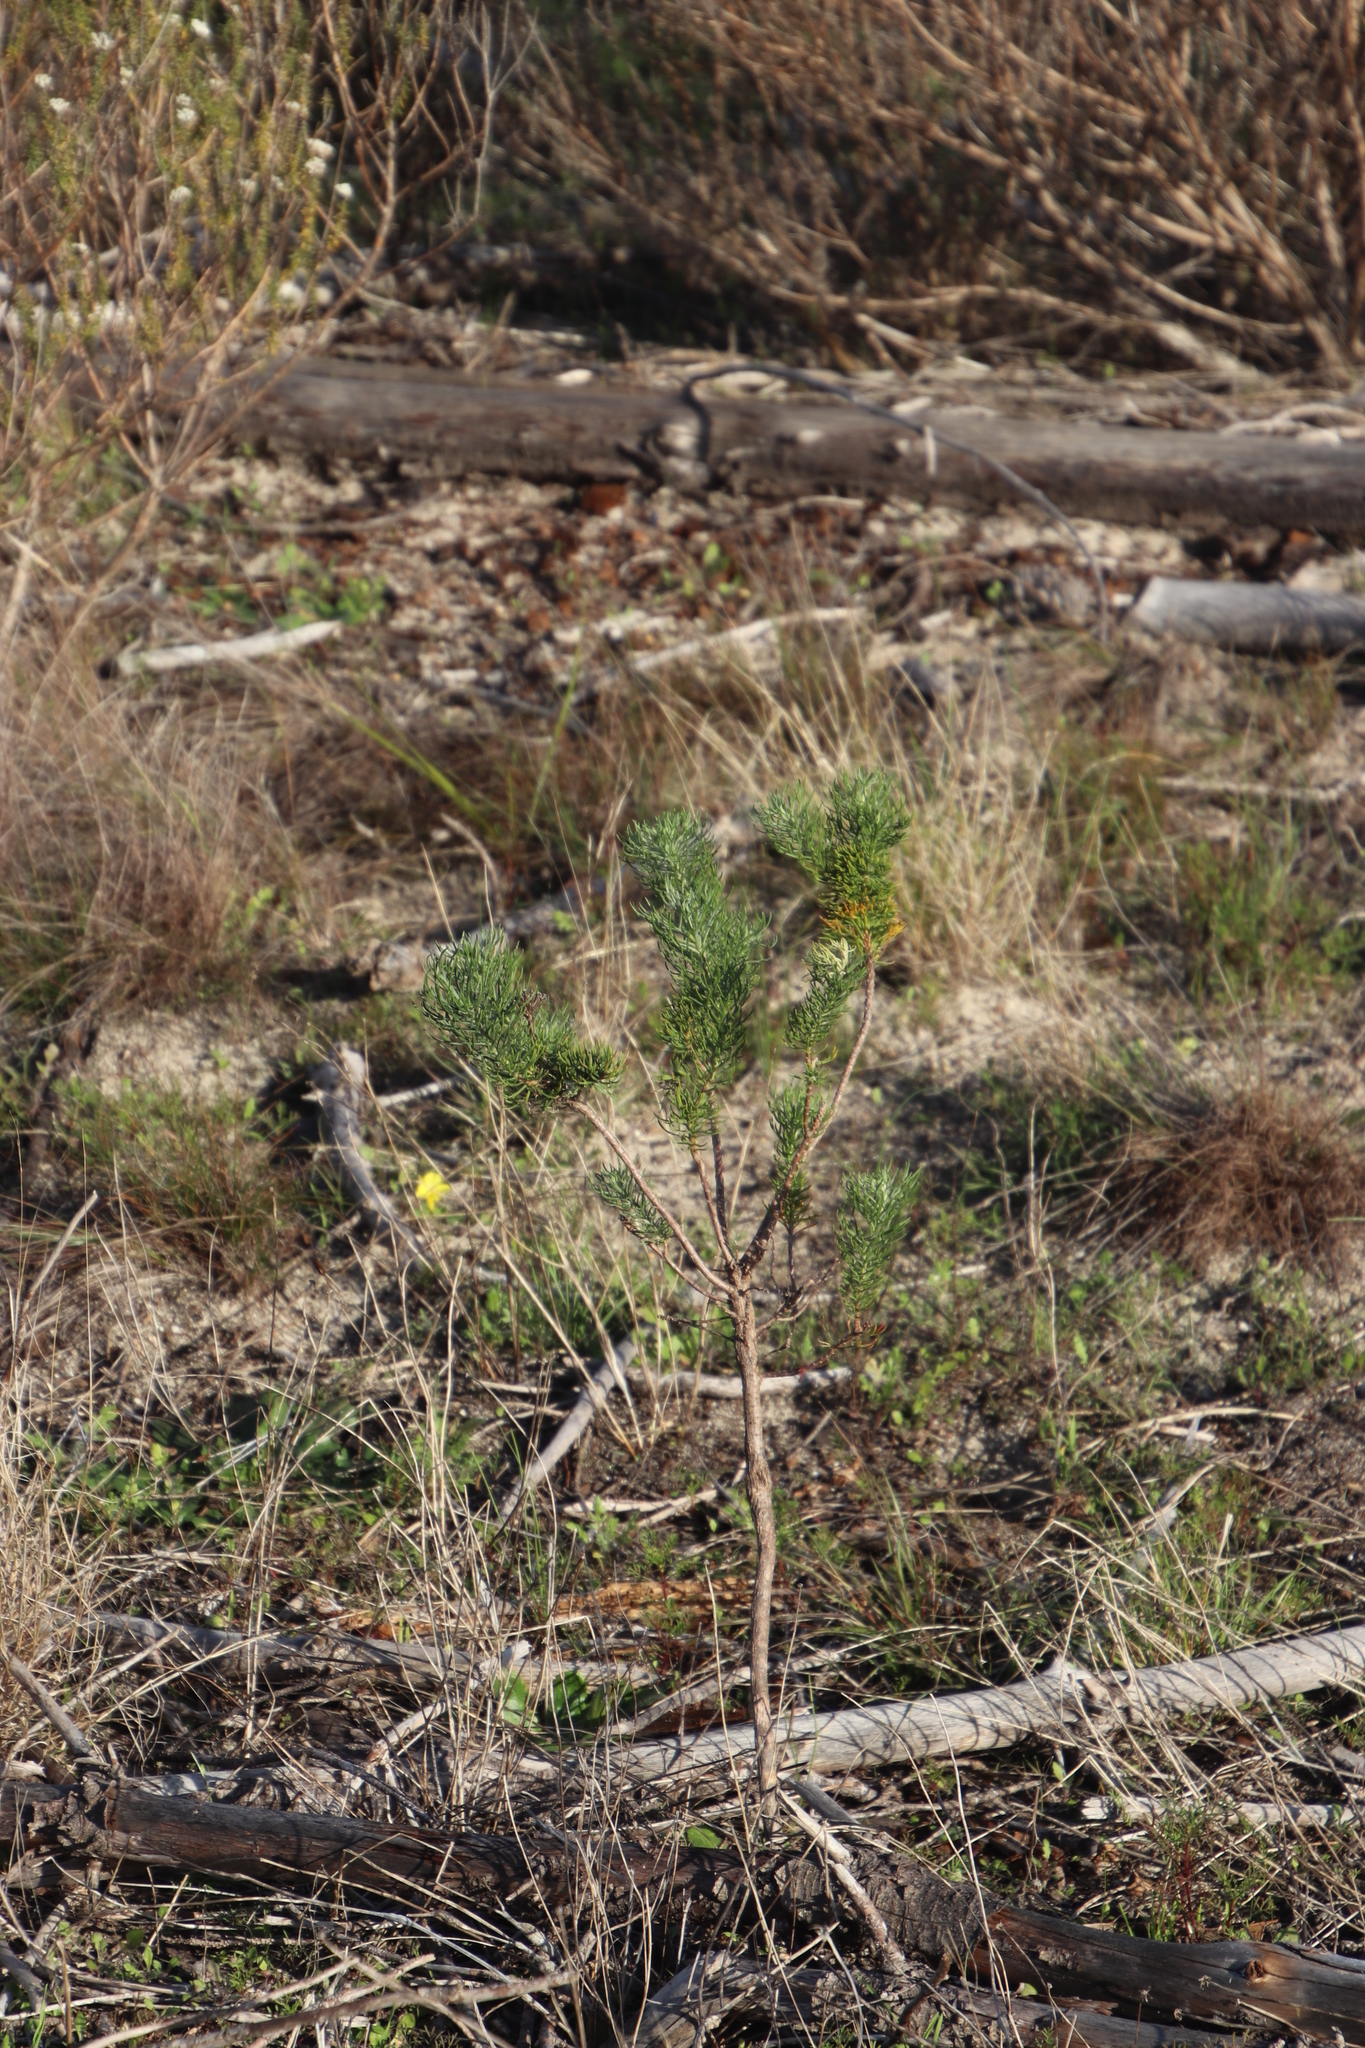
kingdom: Plantae
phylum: Tracheophyta
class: Magnoliopsida
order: Asterales
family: Asteraceae
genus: Athanasia
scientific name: Athanasia crithmifolia
